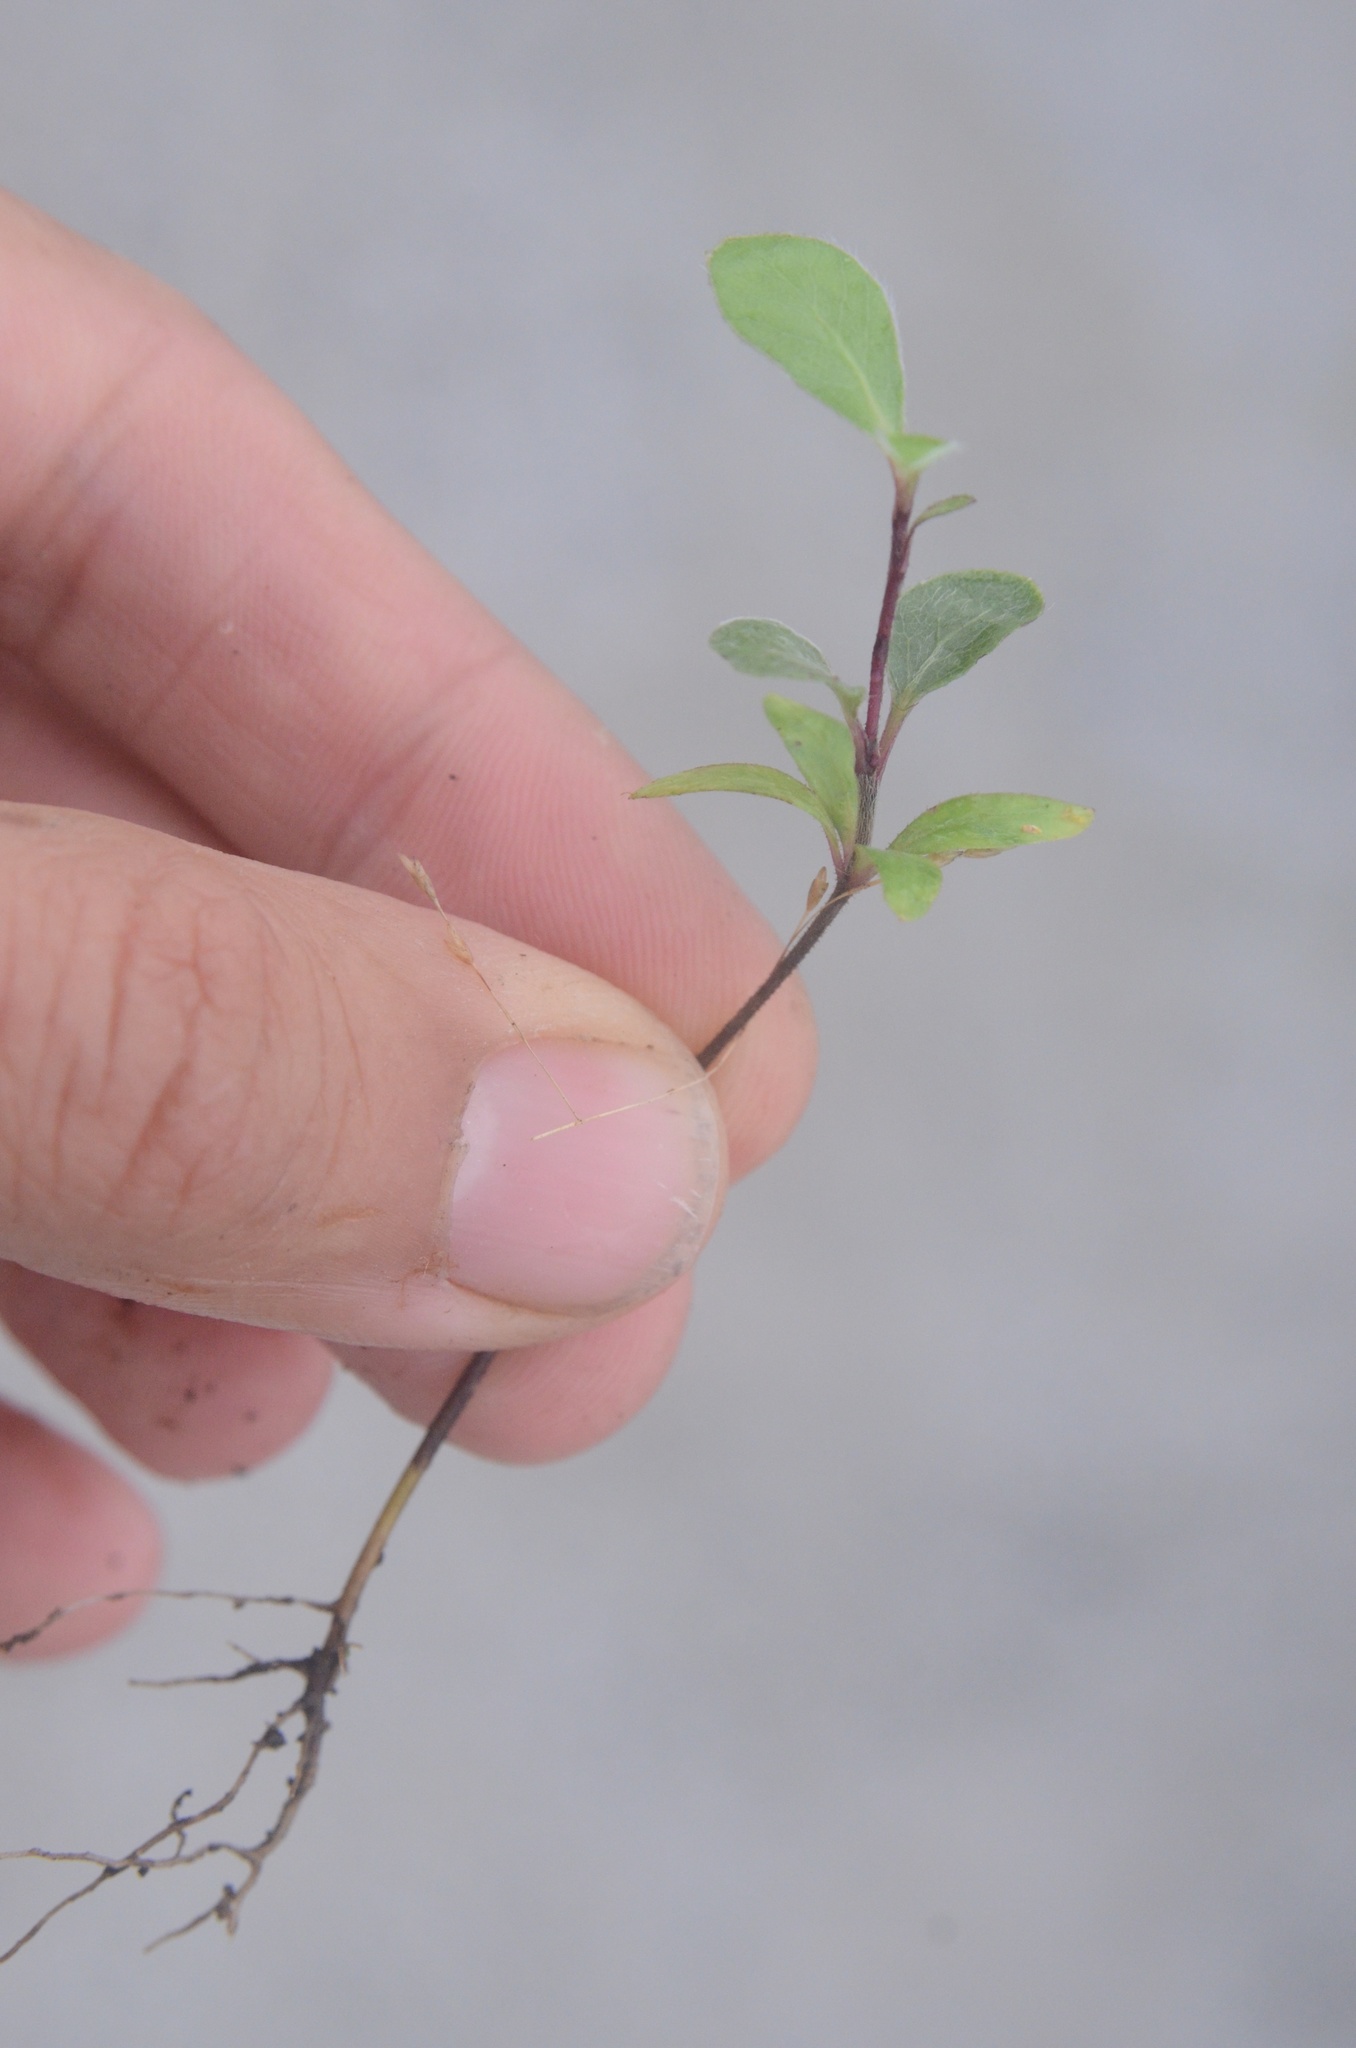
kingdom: Plantae
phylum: Tracheophyta
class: Magnoliopsida
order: Apiales
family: Pittosporaceae
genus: Pittosporum
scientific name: Pittosporum tenuifolium
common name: Kohuhu
